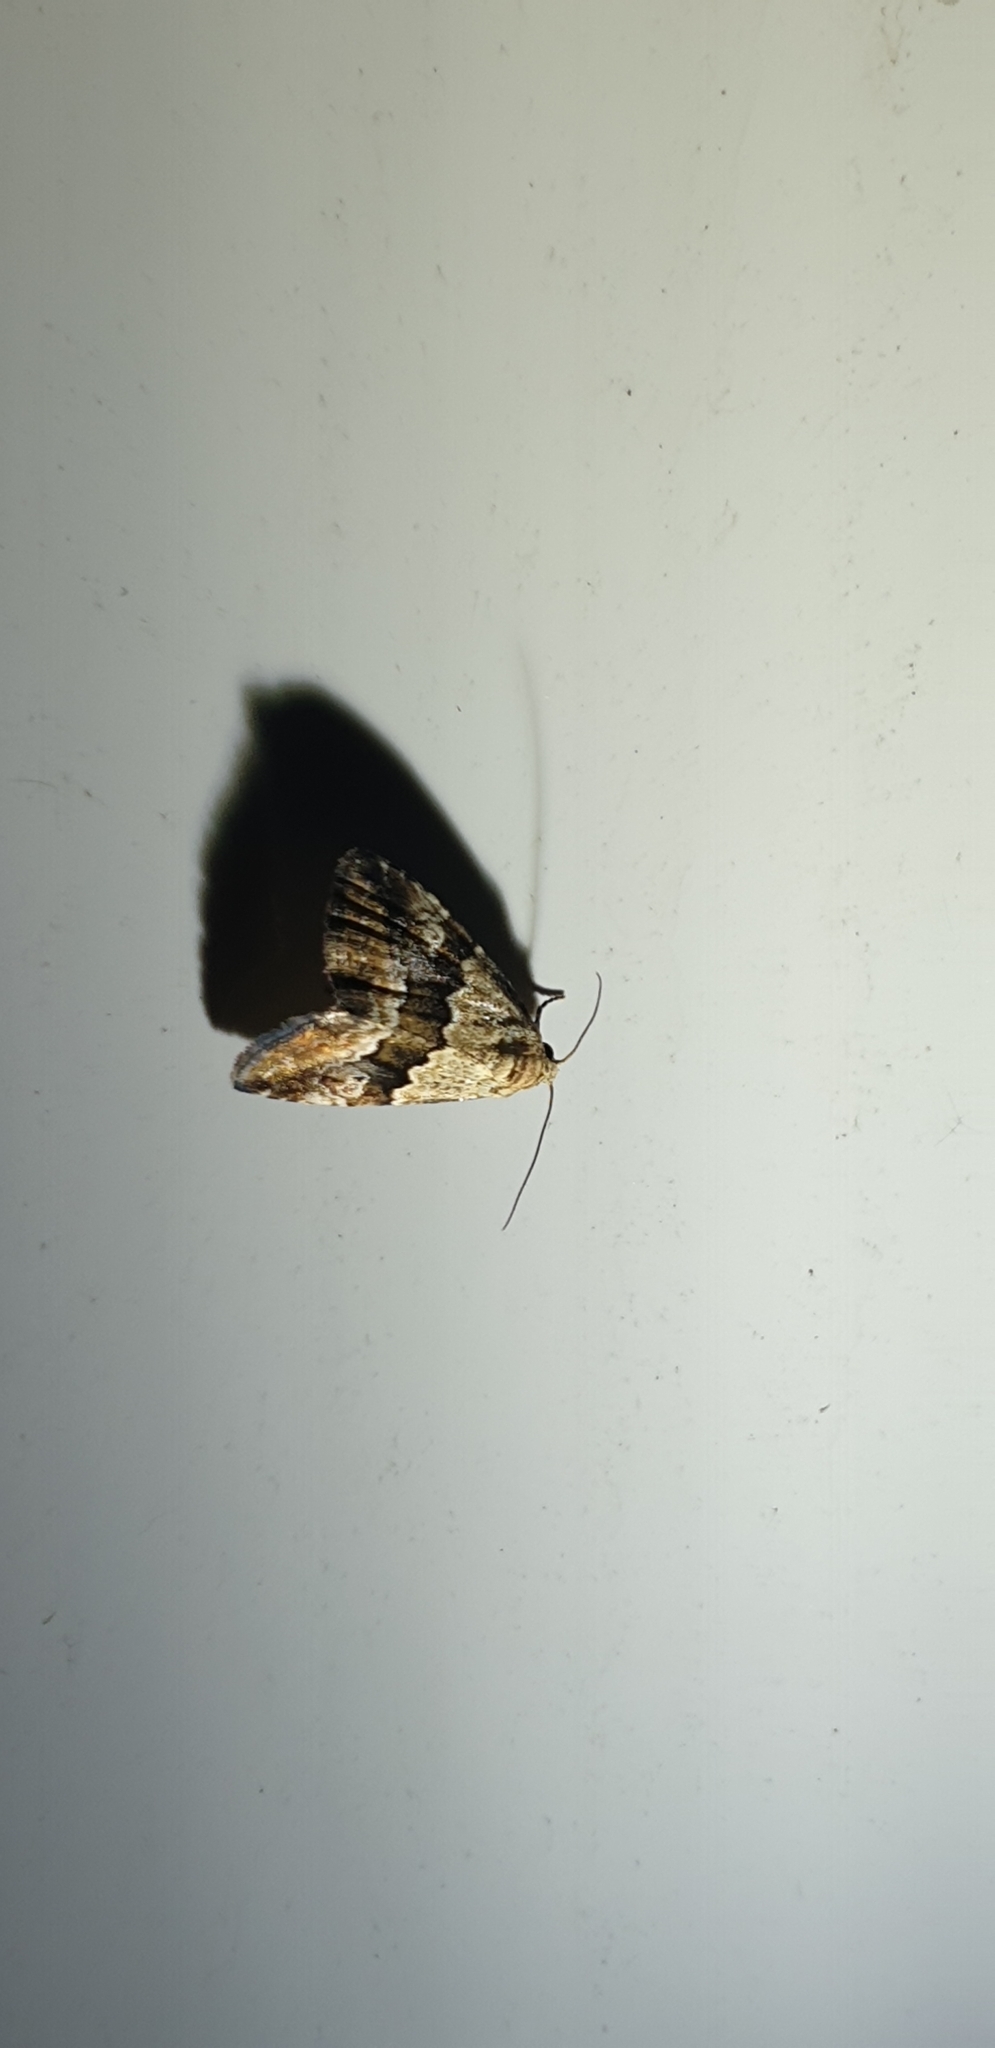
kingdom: Animalia
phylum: Arthropoda
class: Insecta
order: Lepidoptera
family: Noctuidae
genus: Maliattha
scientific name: Maliattha amorpha
